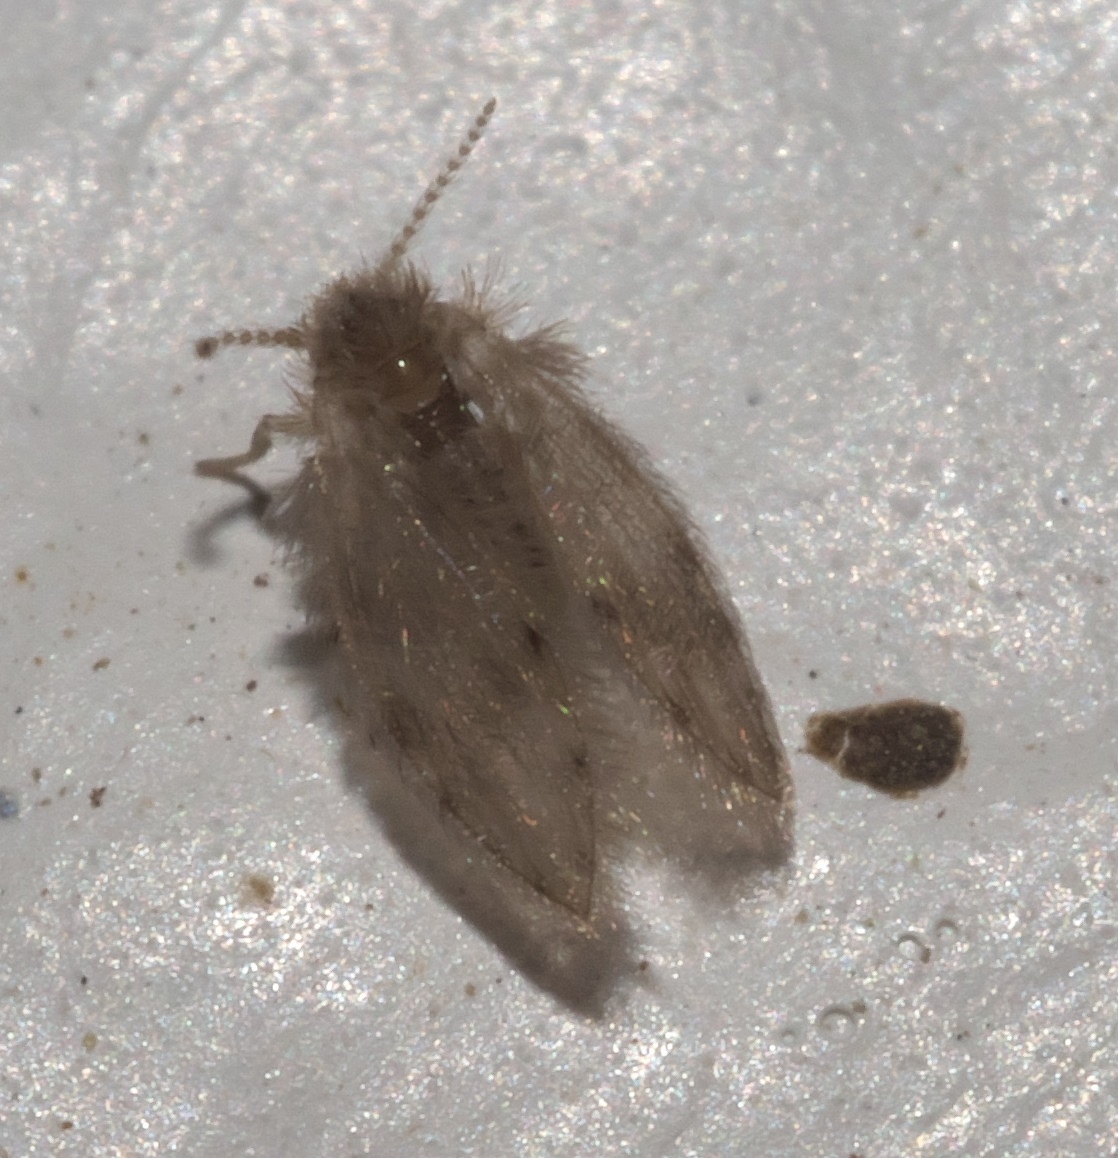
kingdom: Animalia
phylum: Arthropoda
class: Insecta
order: Diptera
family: Psychodidae
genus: Psychoda
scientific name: Psychoda alternata
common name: Moth fly
